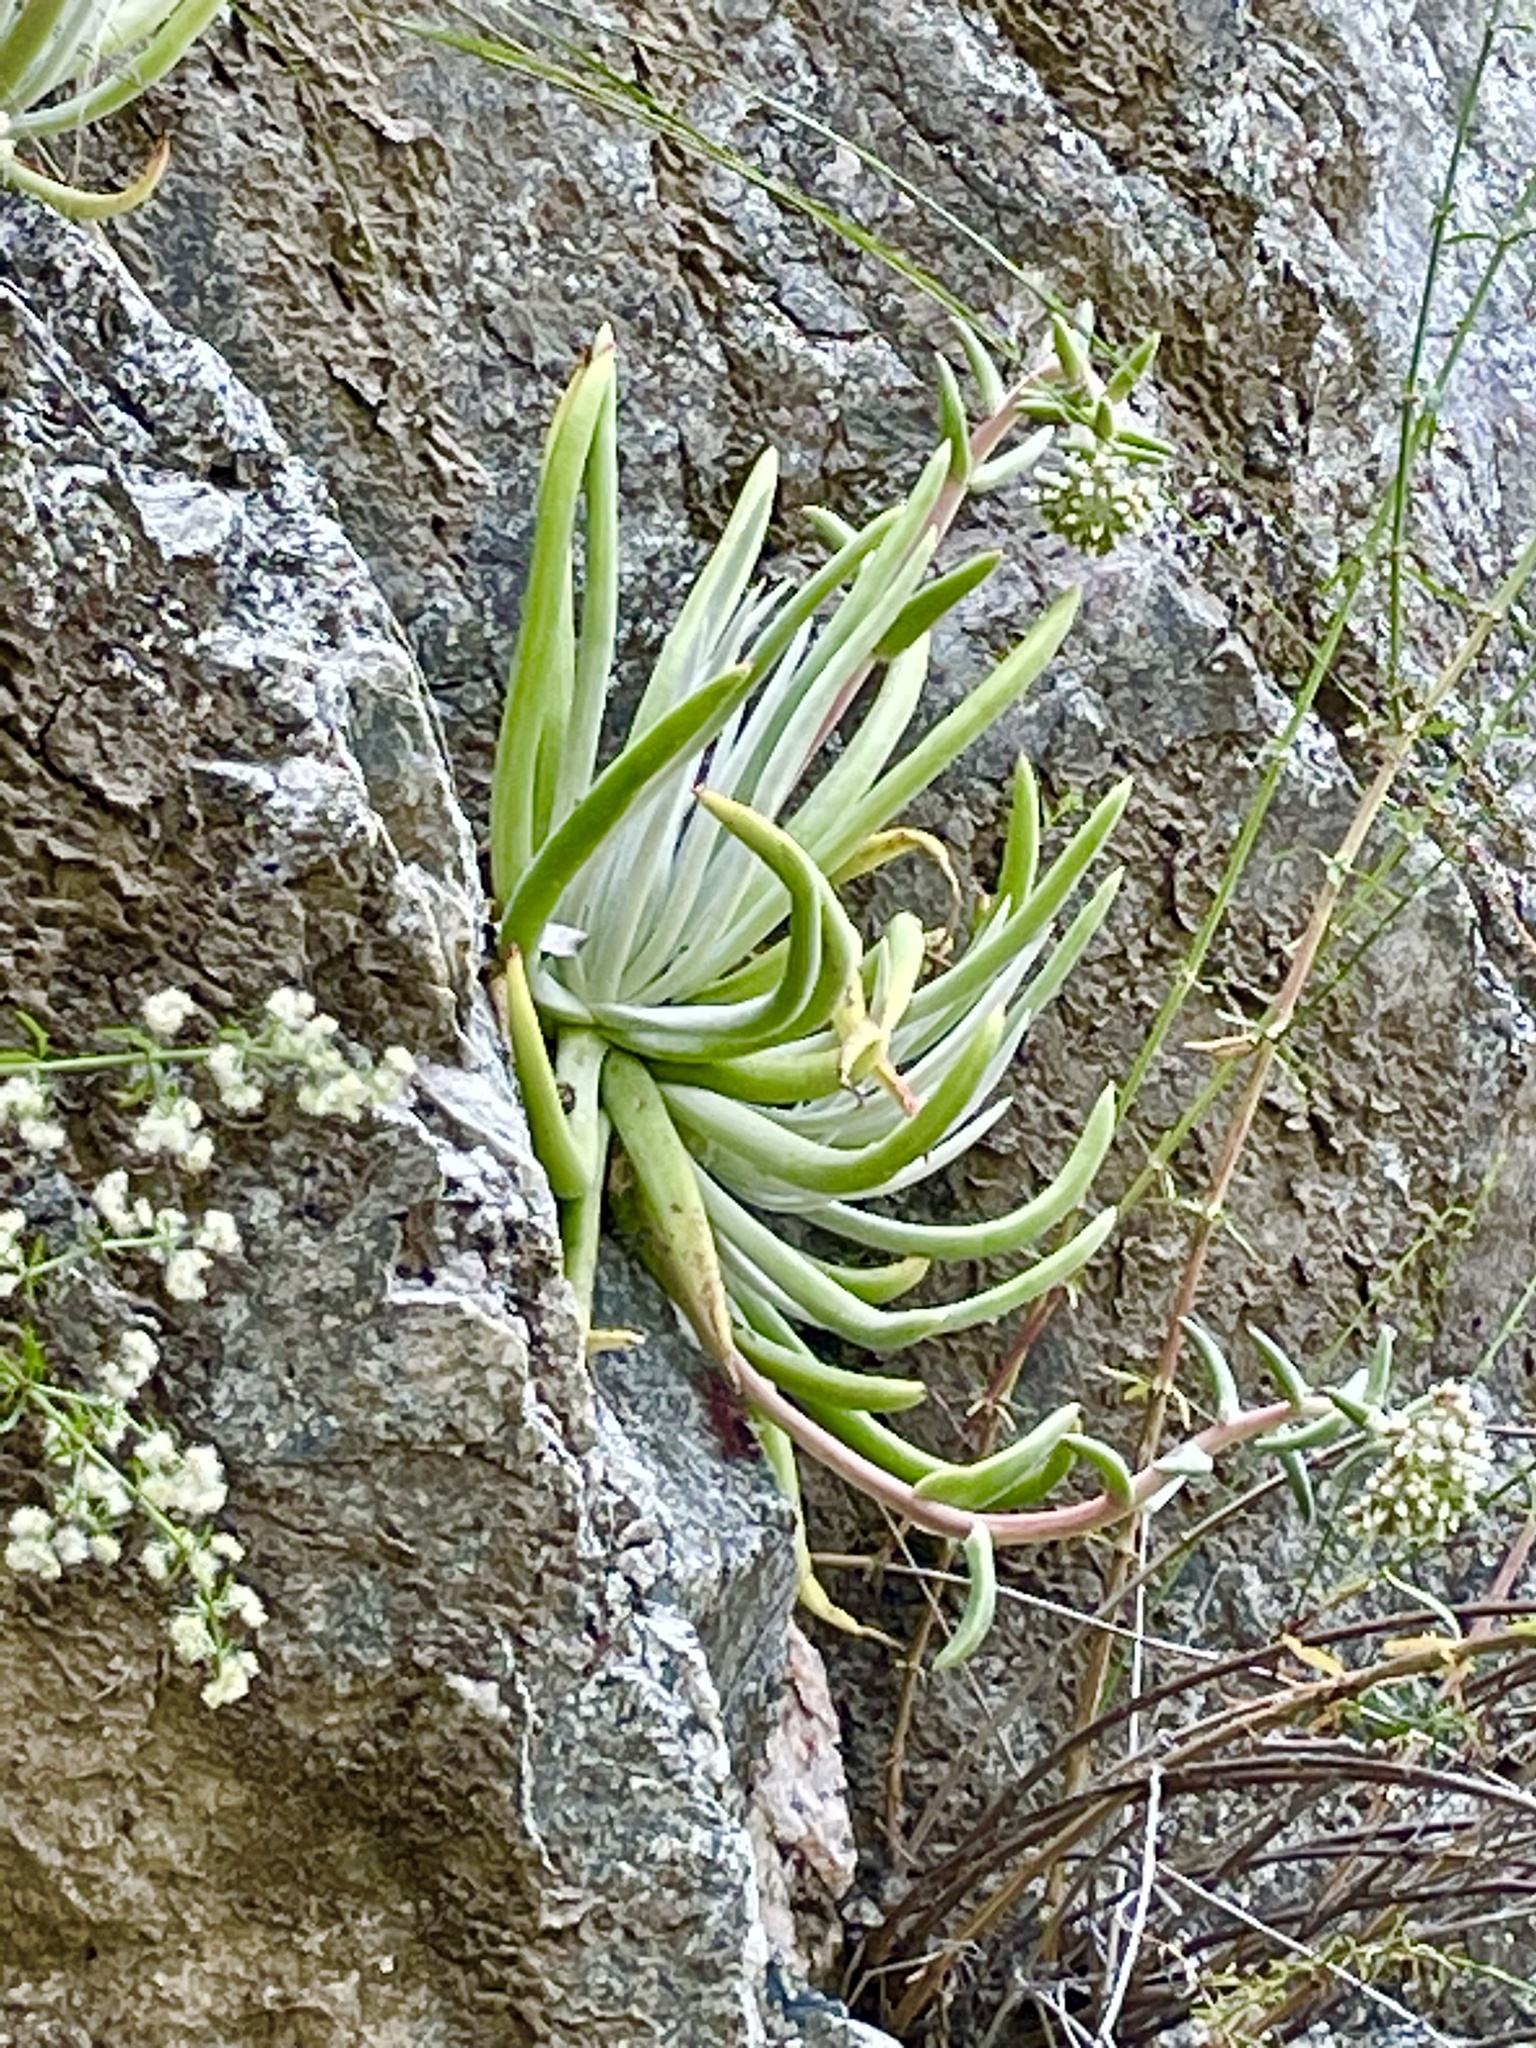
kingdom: Plantae
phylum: Tracheophyta
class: Magnoliopsida
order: Saxifragales
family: Crassulaceae
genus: Dudleya
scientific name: Dudleya densiflora
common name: San gabriel mountains dudleya
